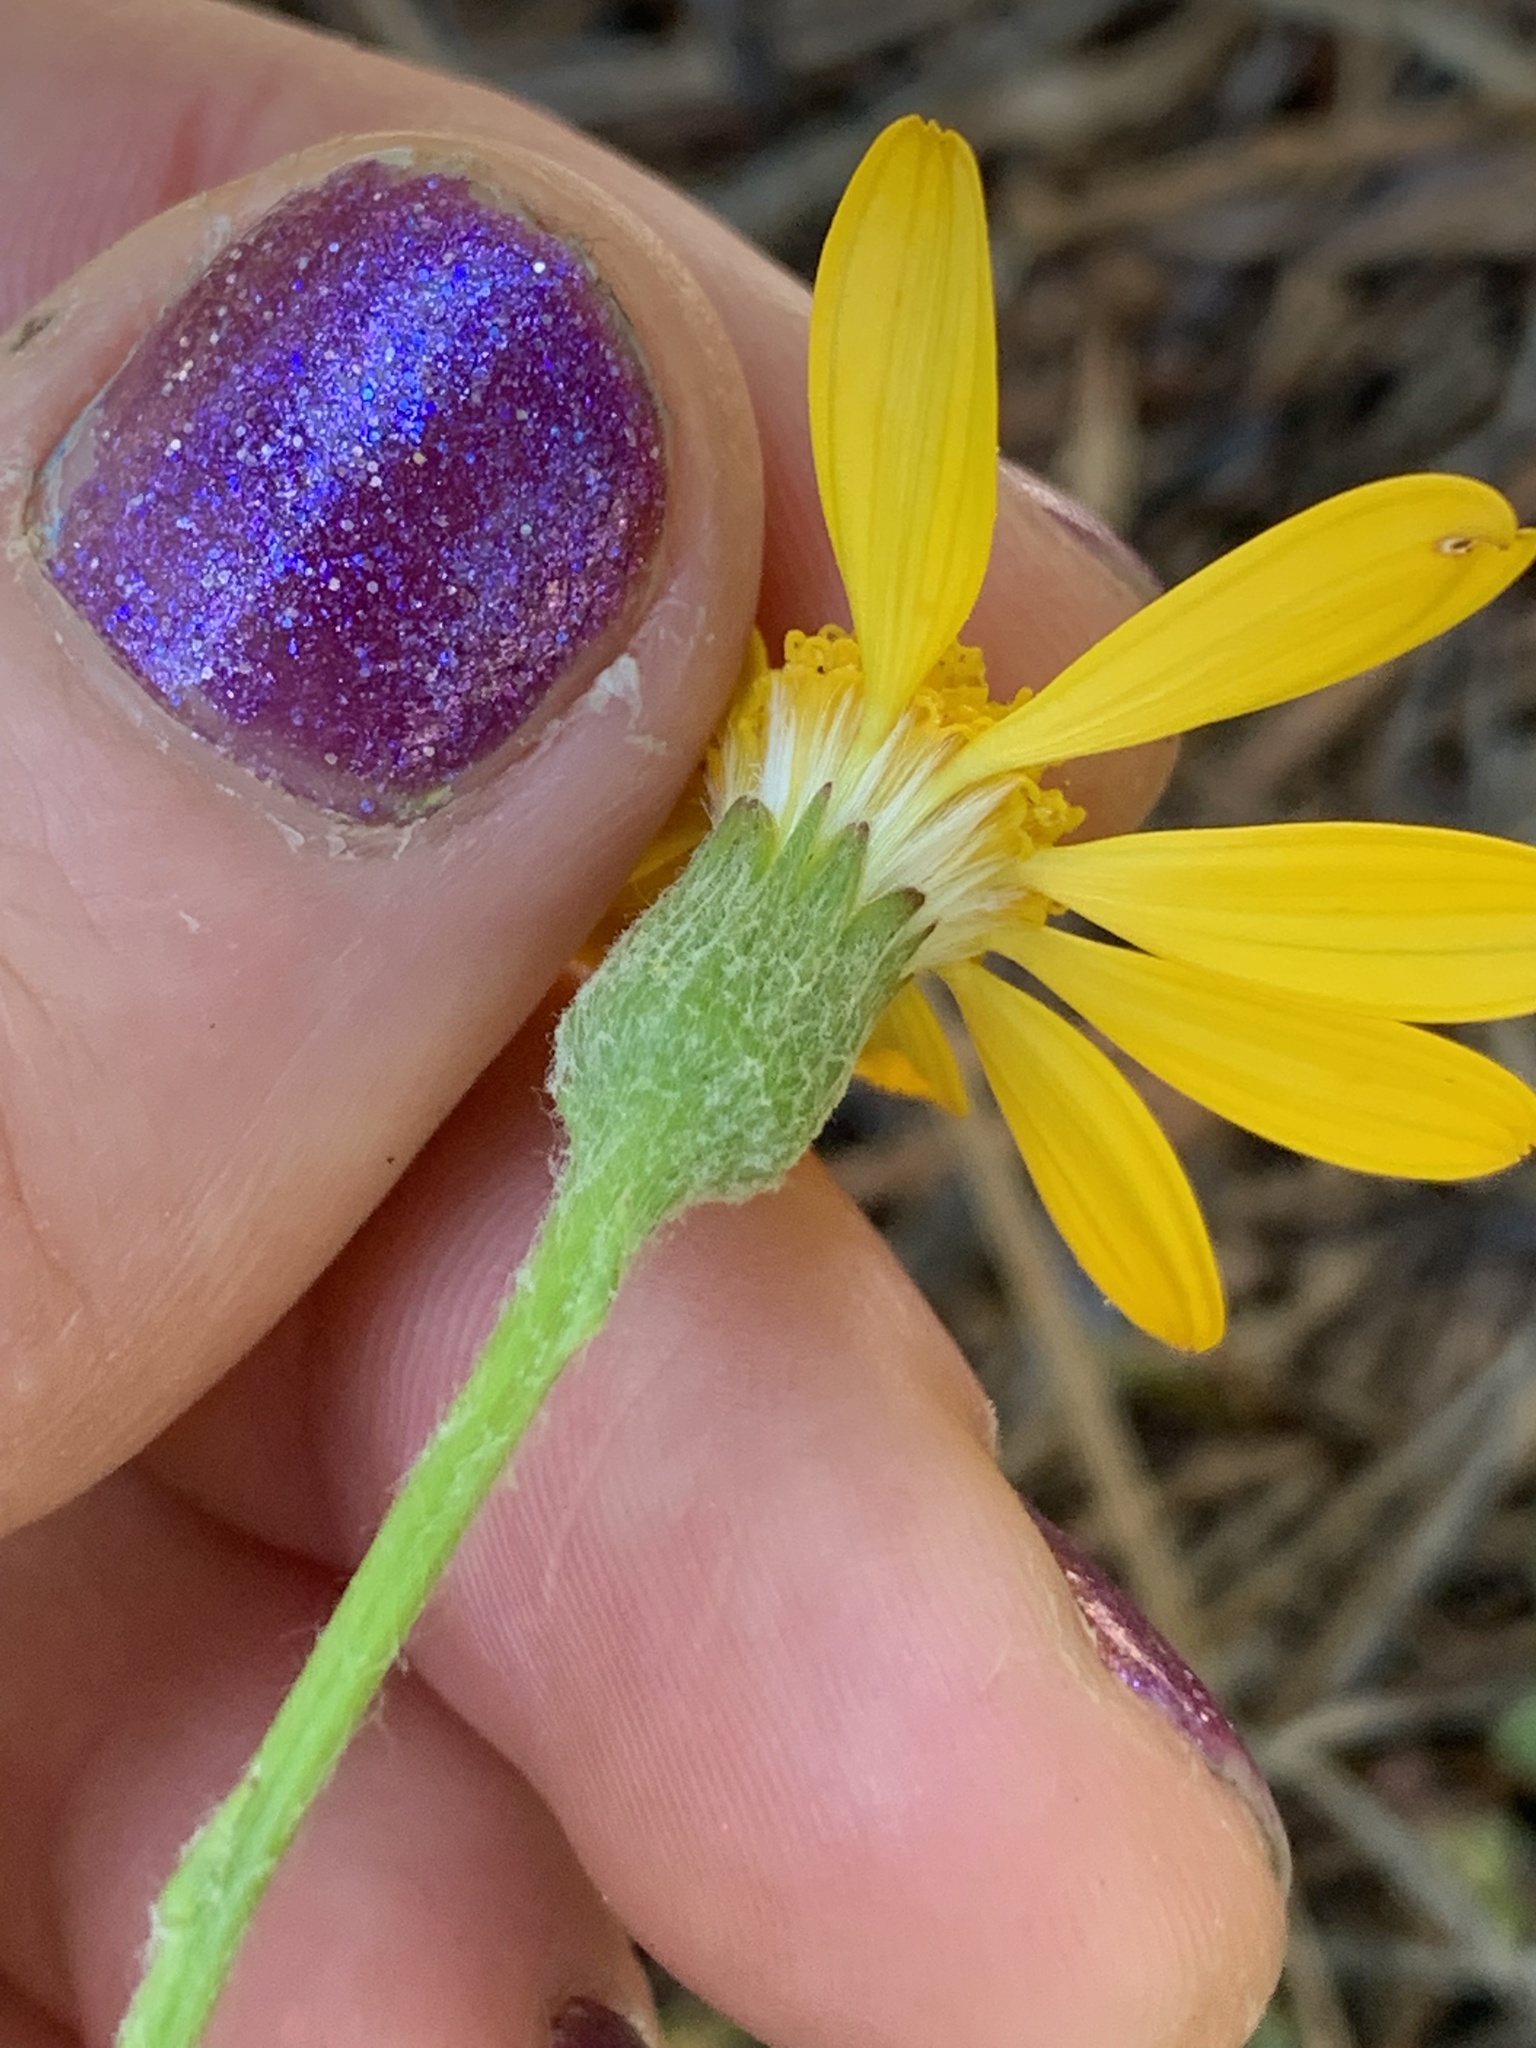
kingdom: Plantae
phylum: Tracheophyta
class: Magnoliopsida
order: Asterales
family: Asteraceae
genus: Packera
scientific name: Packera hesperia
